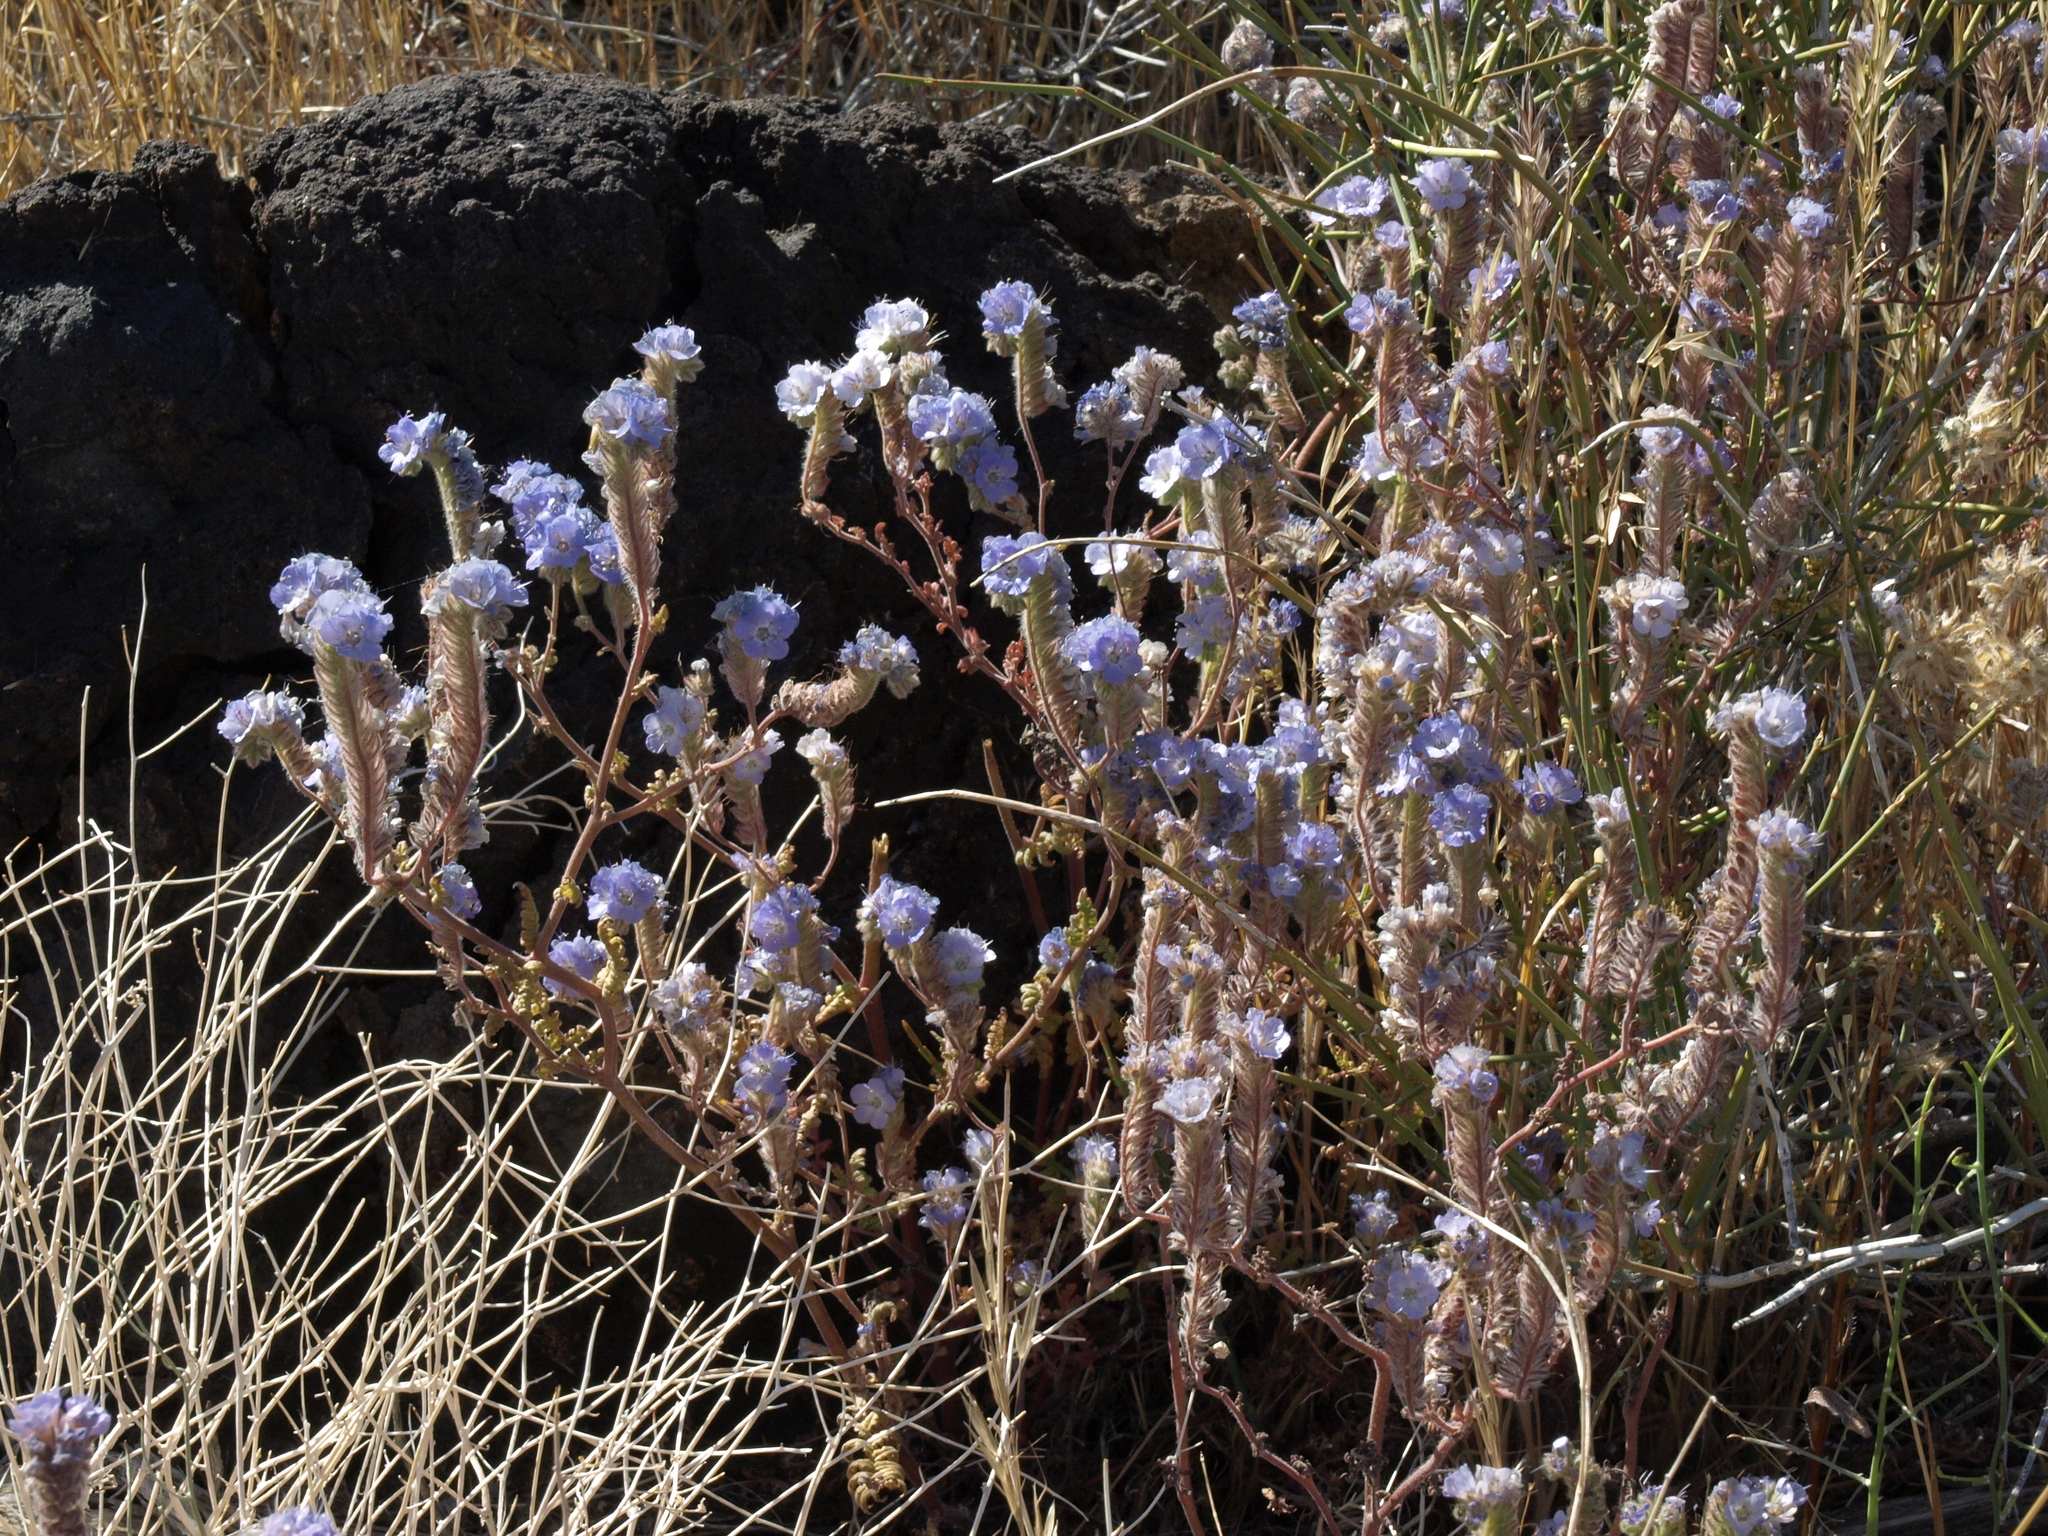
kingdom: Plantae
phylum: Tracheophyta
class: Magnoliopsida
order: Boraginales
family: Hydrophyllaceae
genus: Phacelia
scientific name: Phacelia distans
